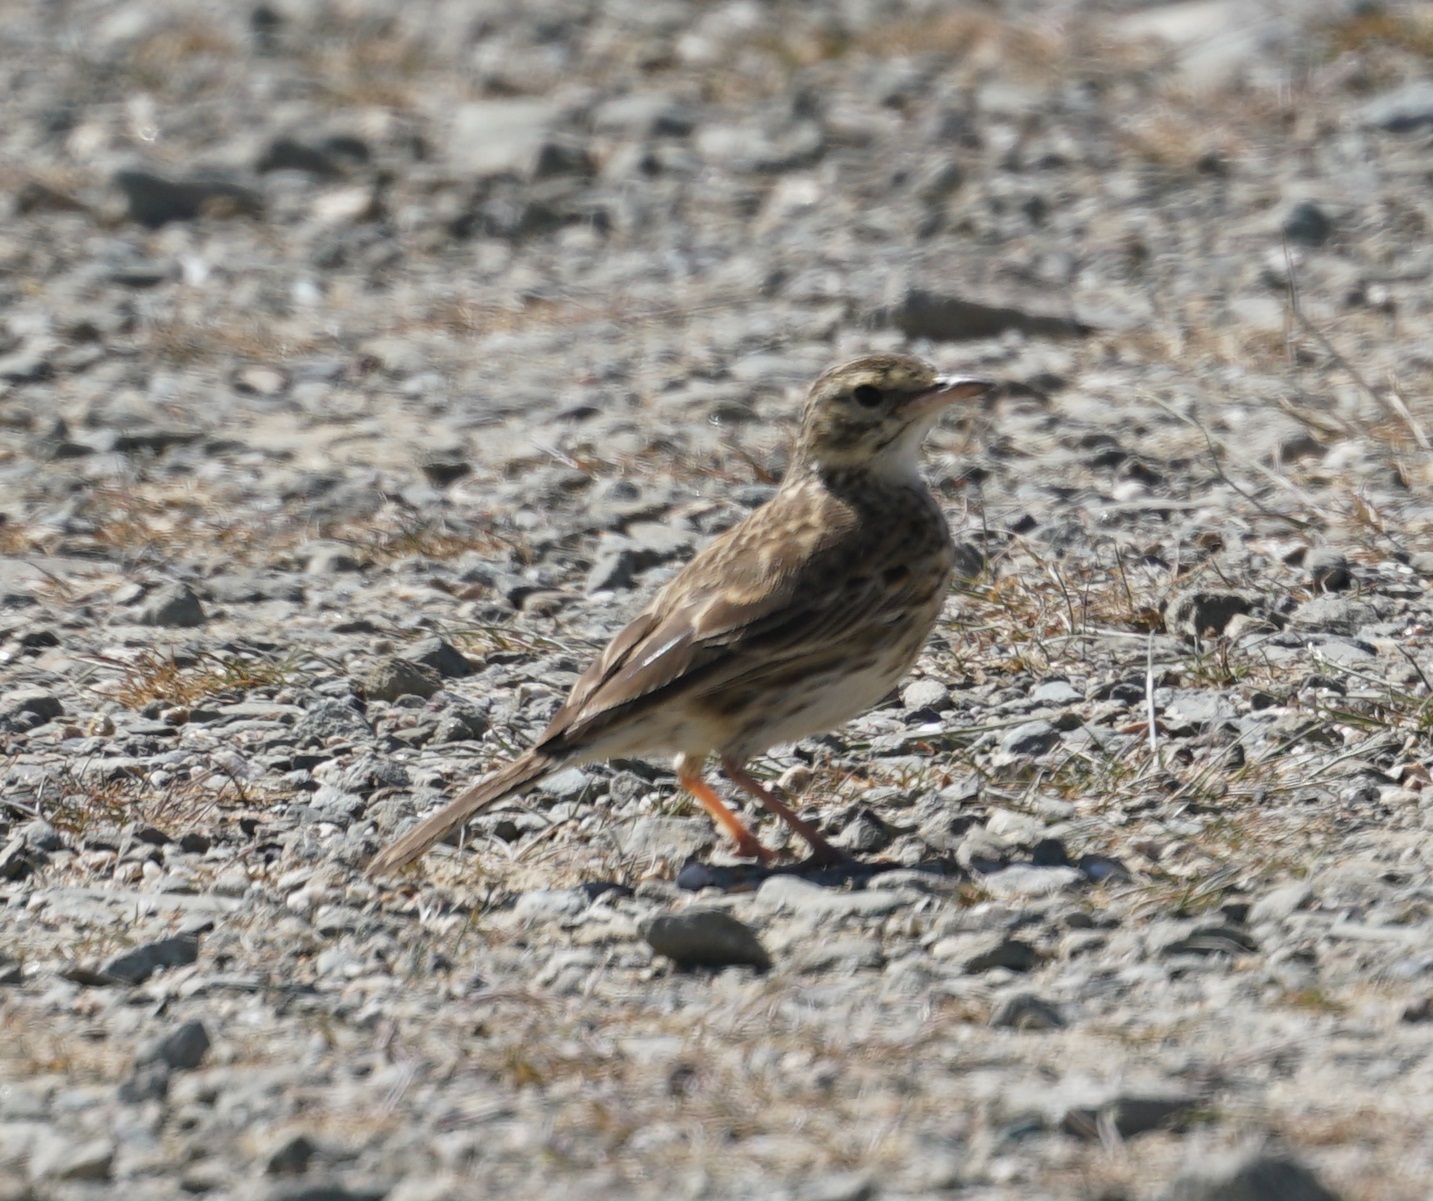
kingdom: Animalia
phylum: Chordata
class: Aves
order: Passeriformes
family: Motacillidae
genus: Anthus
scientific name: Anthus australis
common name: Australian pipit
